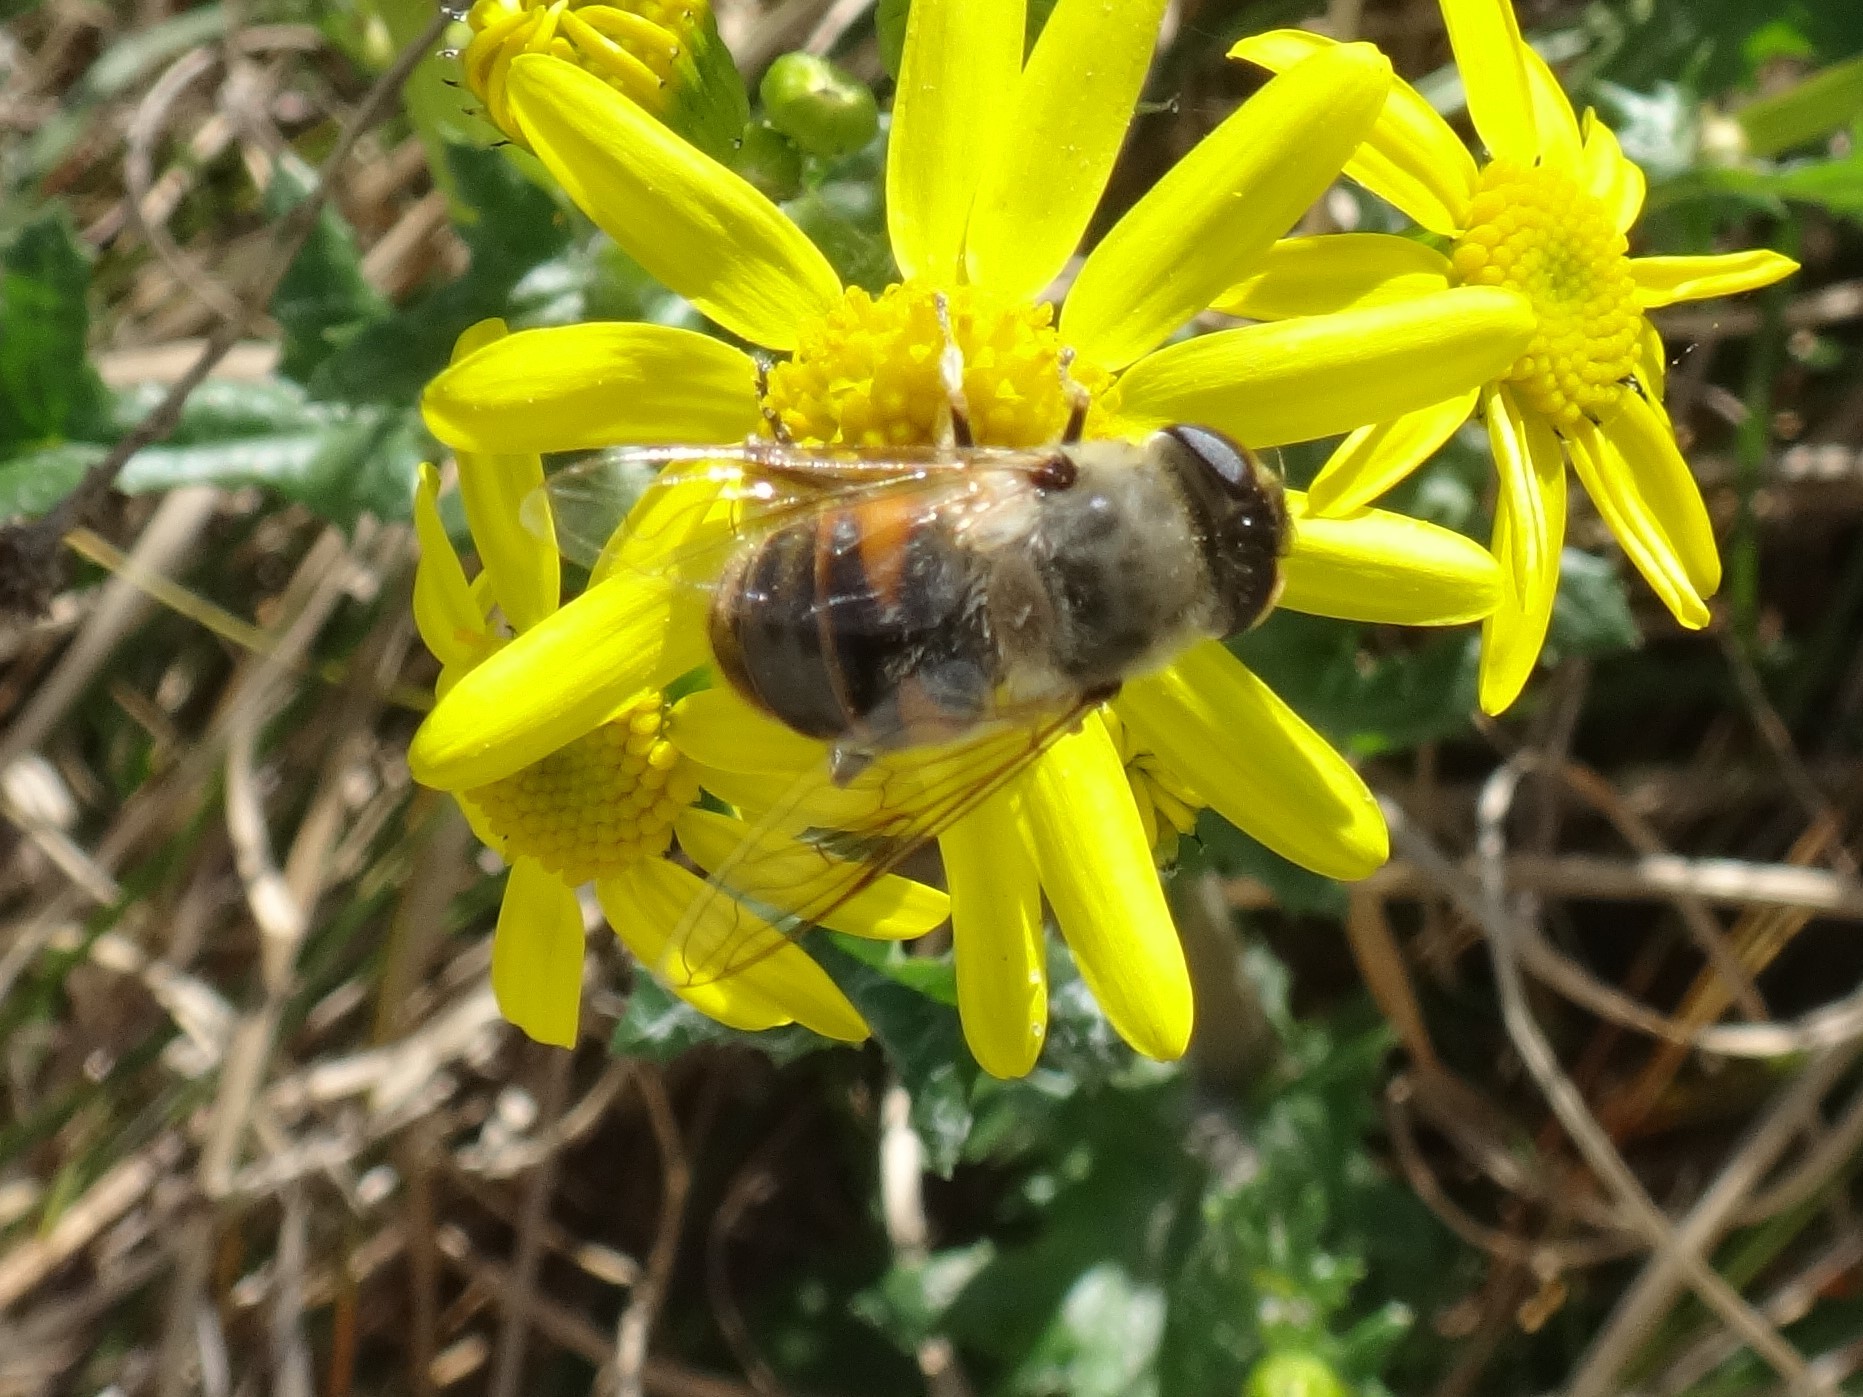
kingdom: Animalia
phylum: Arthropoda
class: Insecta
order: Diptera
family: Syrphidae
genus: Eristalis
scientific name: Eristalis tenax
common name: Drone fly
